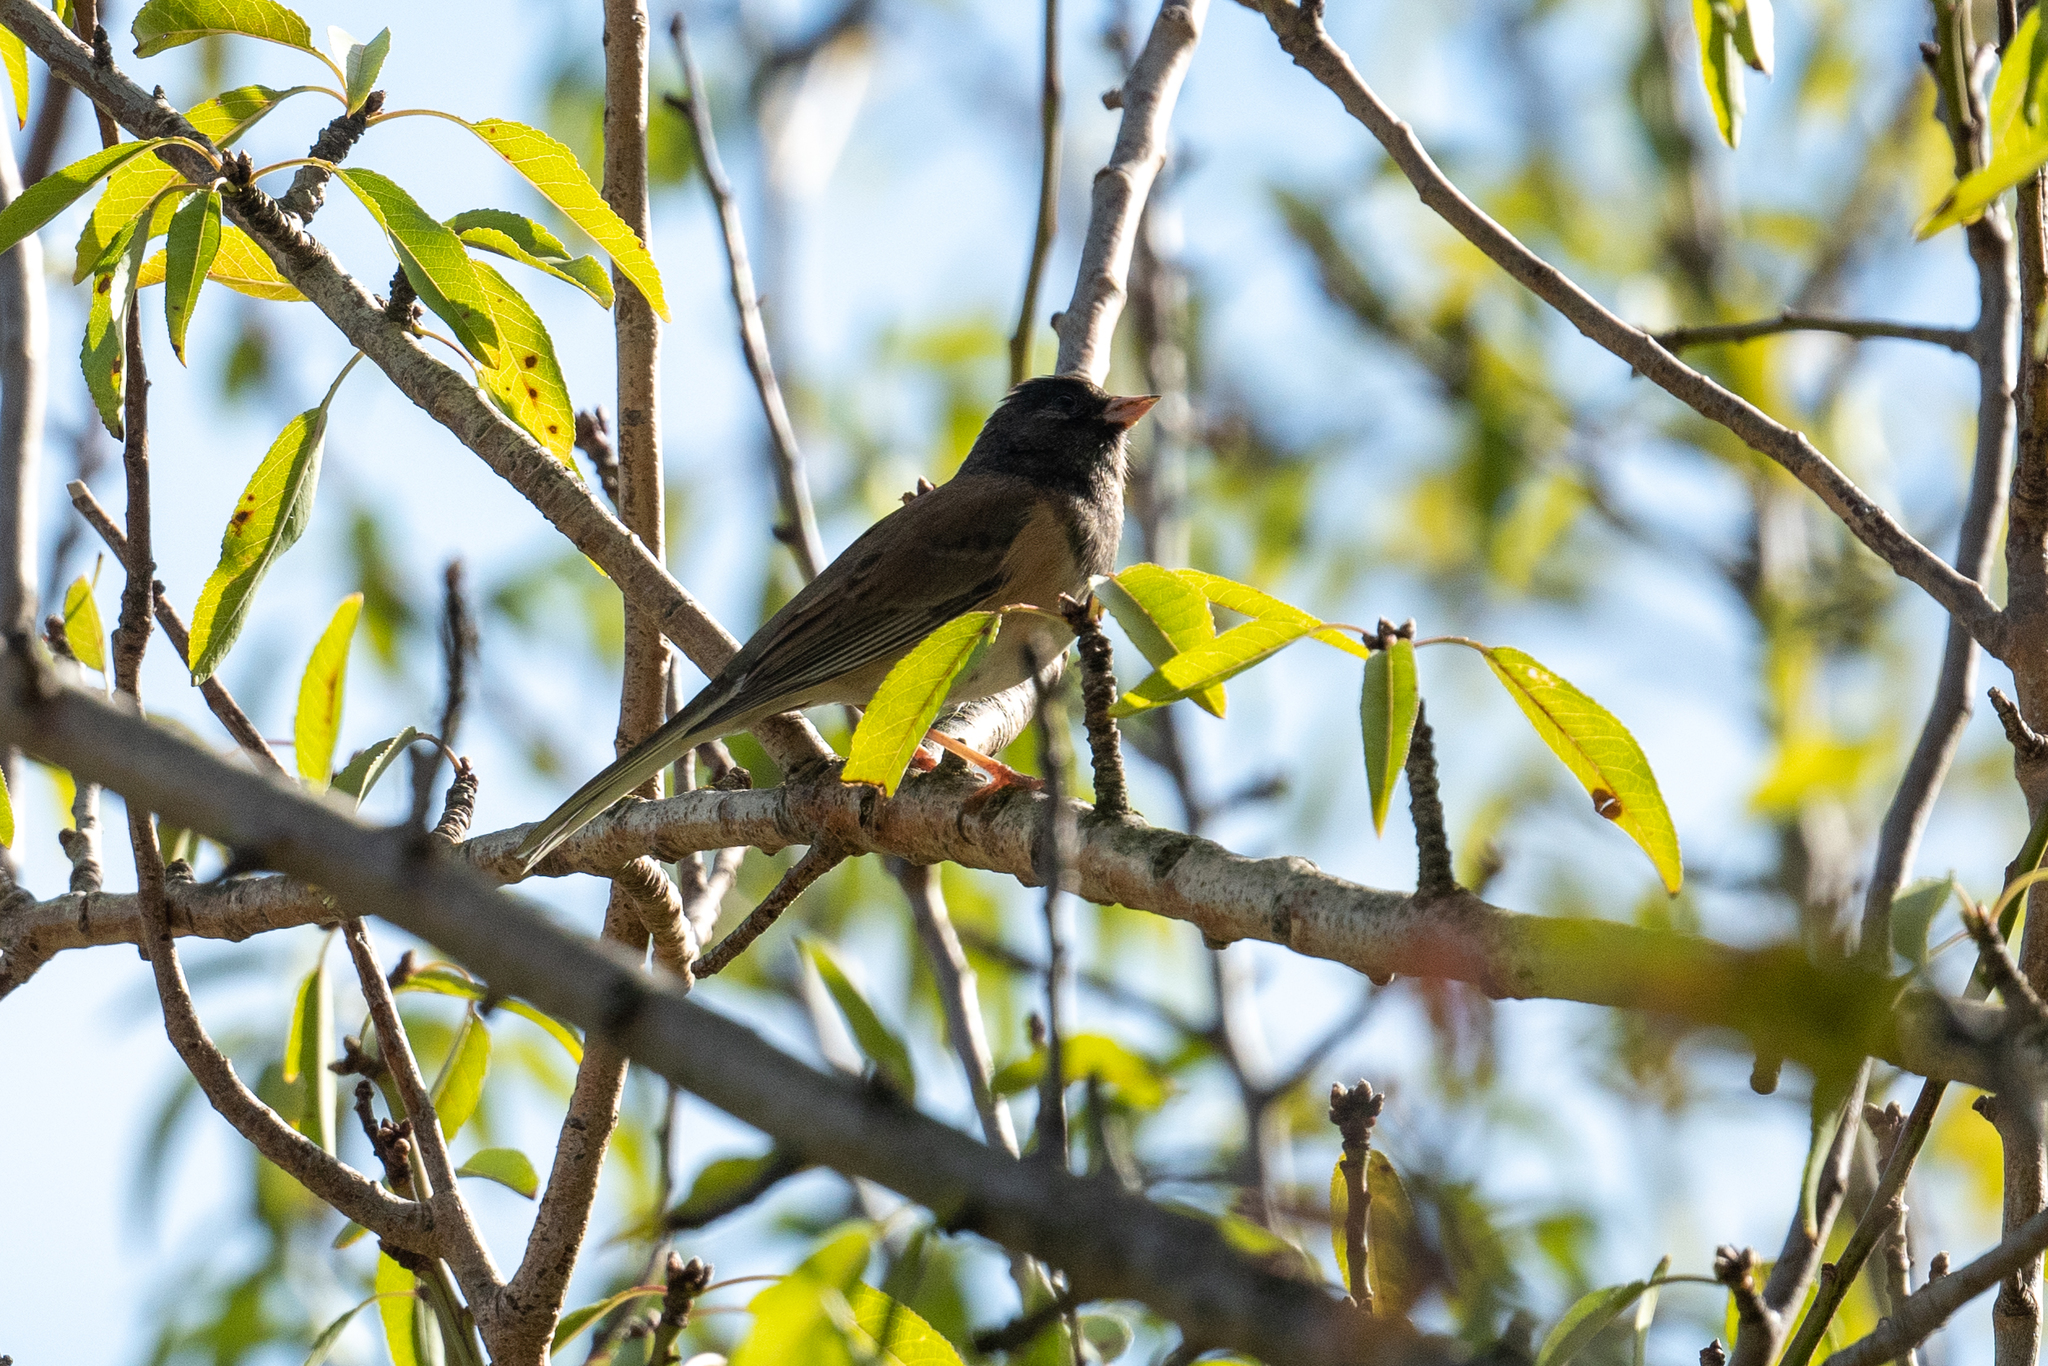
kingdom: Animalia
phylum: Chordata
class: Aves
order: Passeriformes
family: Passerellidae
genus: Junco
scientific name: Junco hyemalis
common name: Dark-eyed junco
